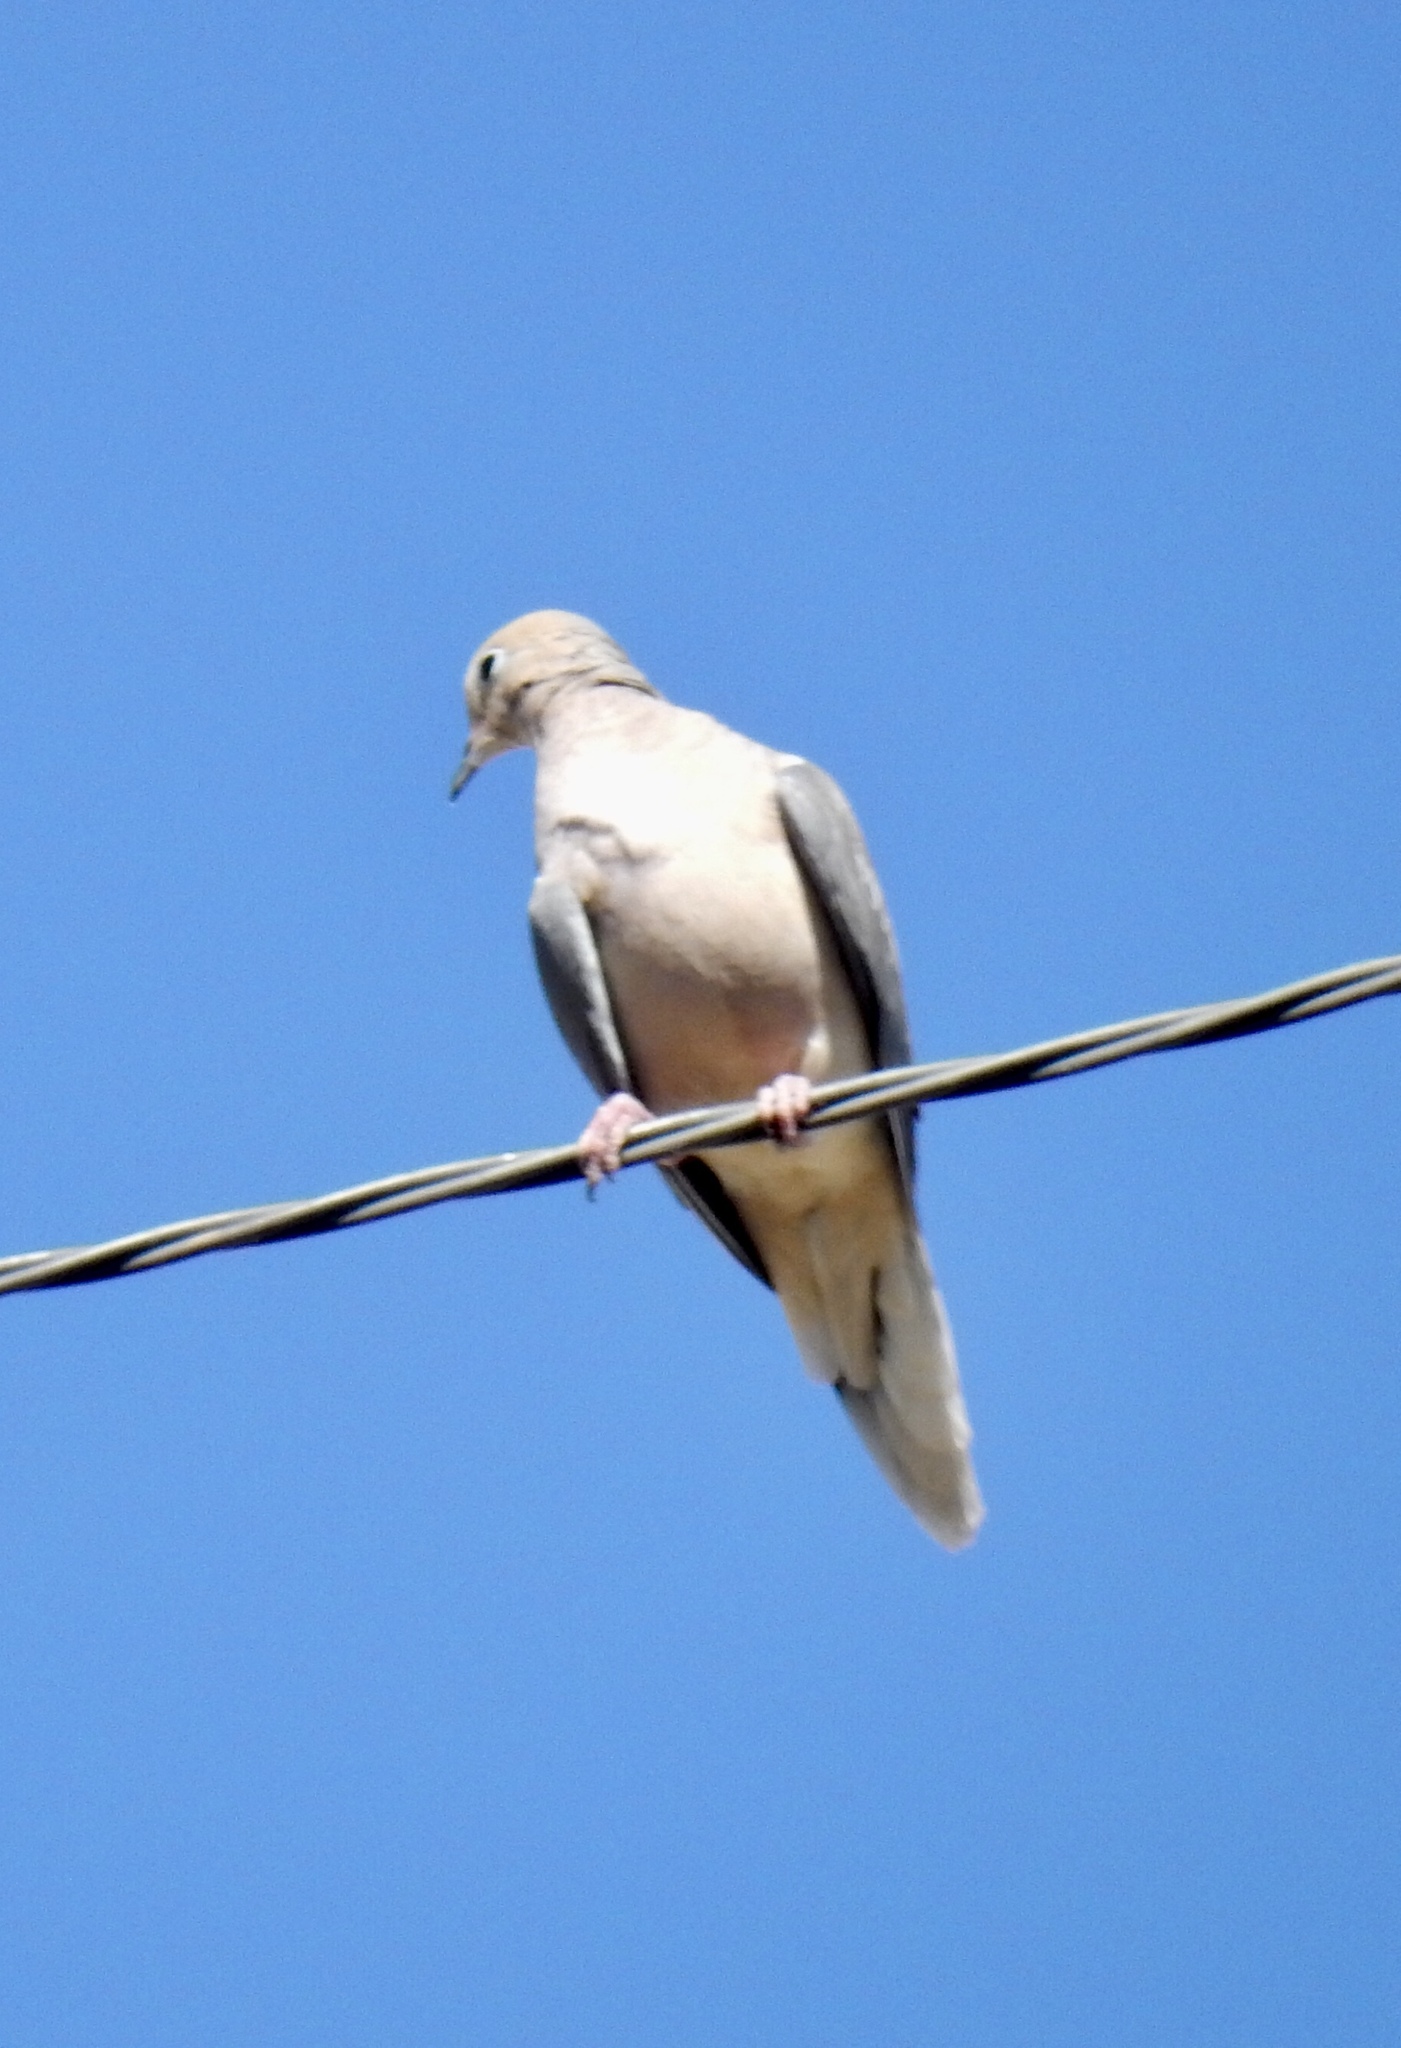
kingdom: Animalia
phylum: Chordata
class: Aves
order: Columbiformes
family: Columbidae
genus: Zenaida
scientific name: Zenaida macroura
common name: Mourning dove
